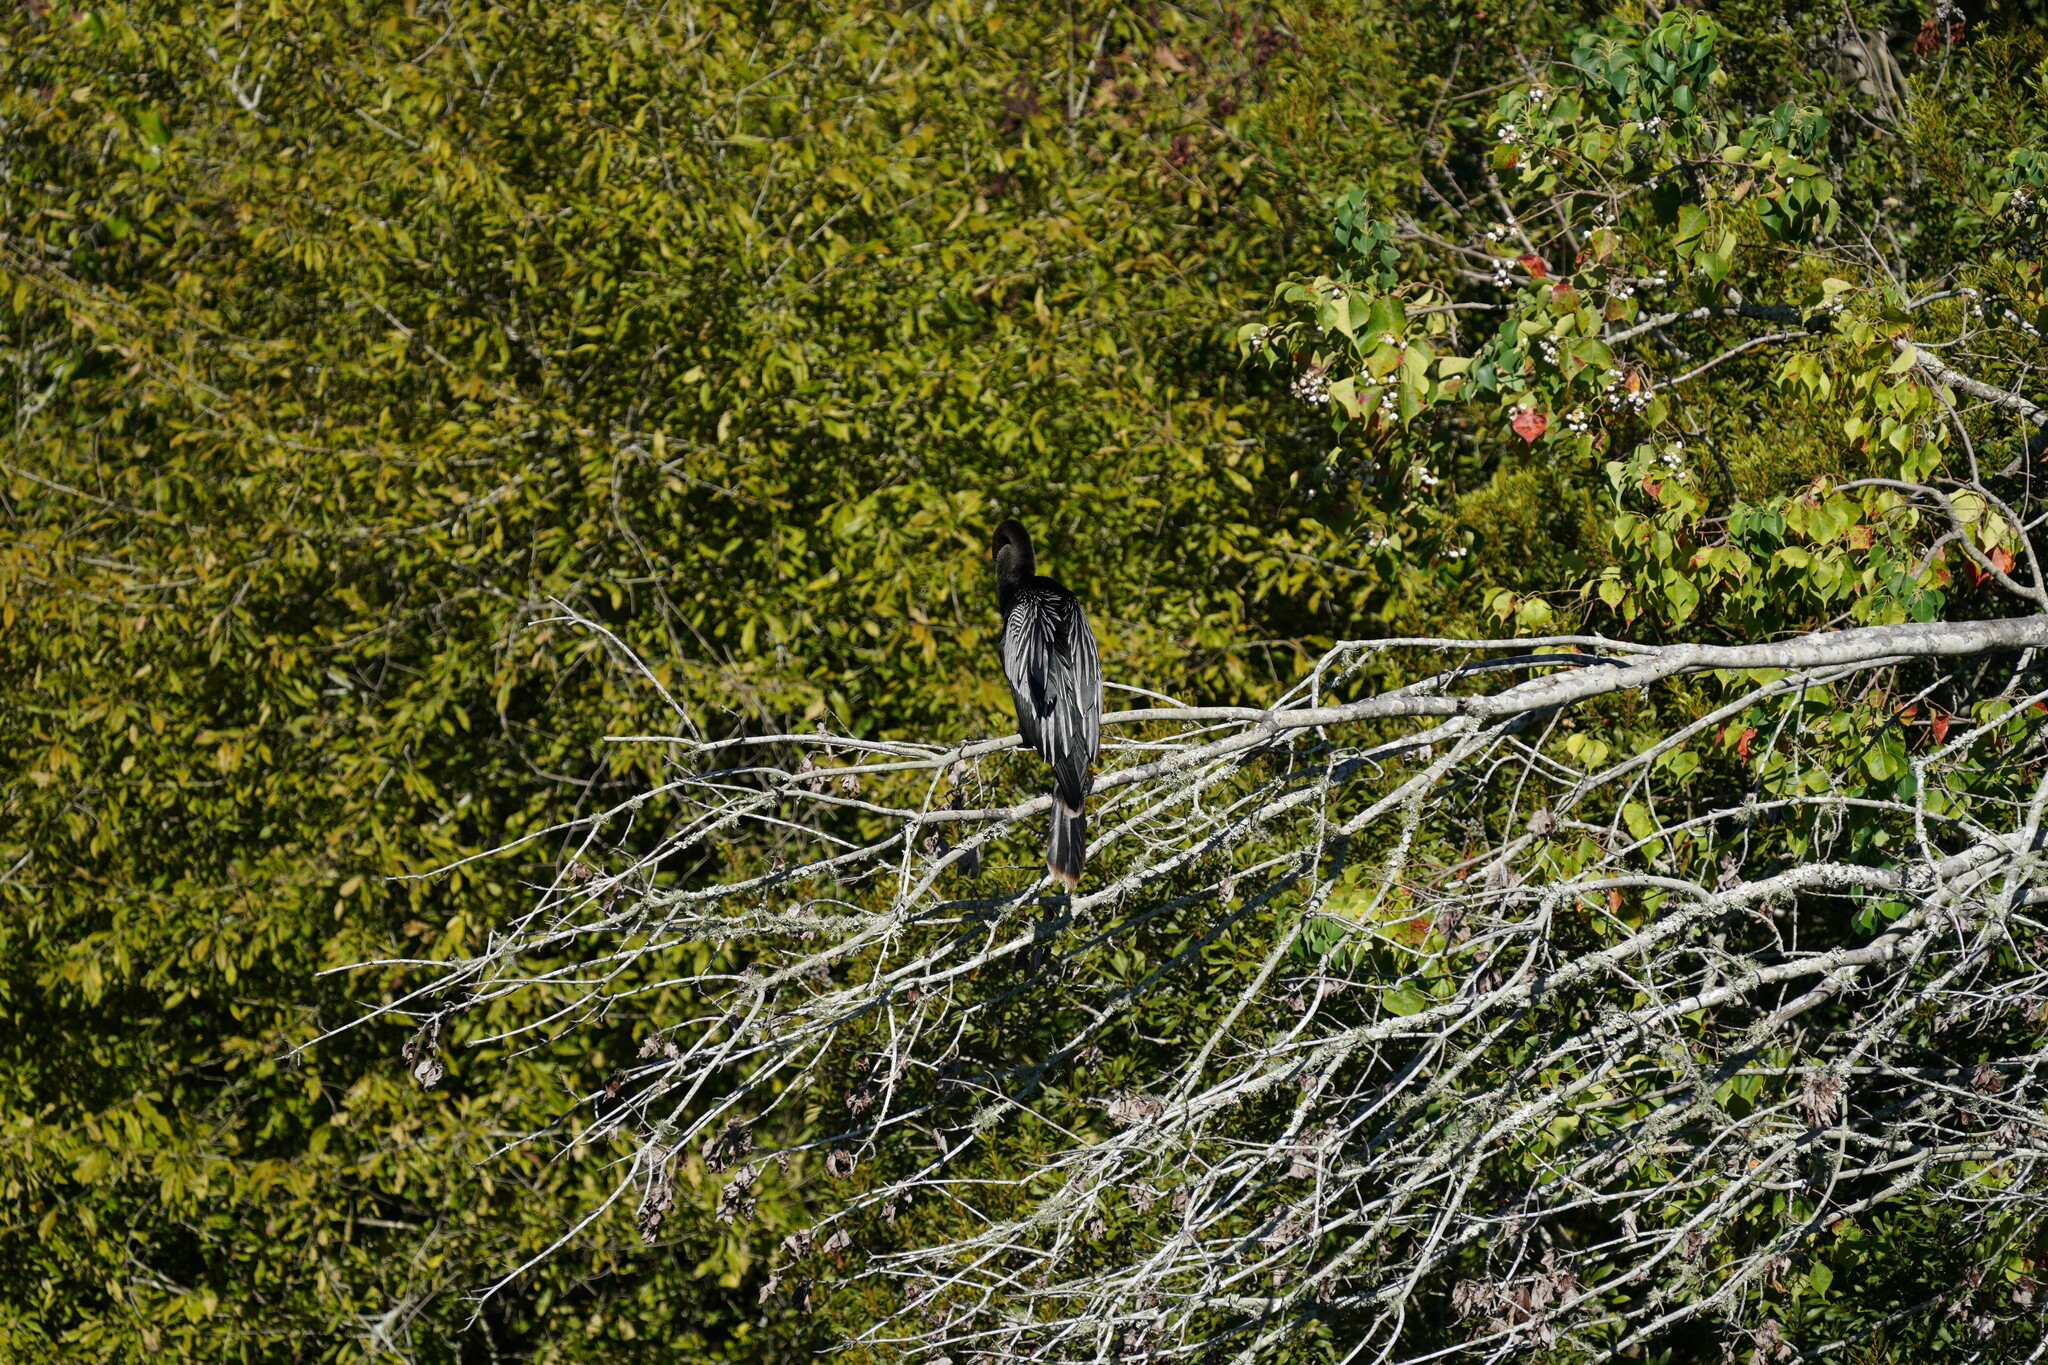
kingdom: Animalia
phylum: Chordata
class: Aves
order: Suliformes
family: Anhingidae
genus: Anhinga
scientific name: Anhinga anhinga
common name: Anhinga
